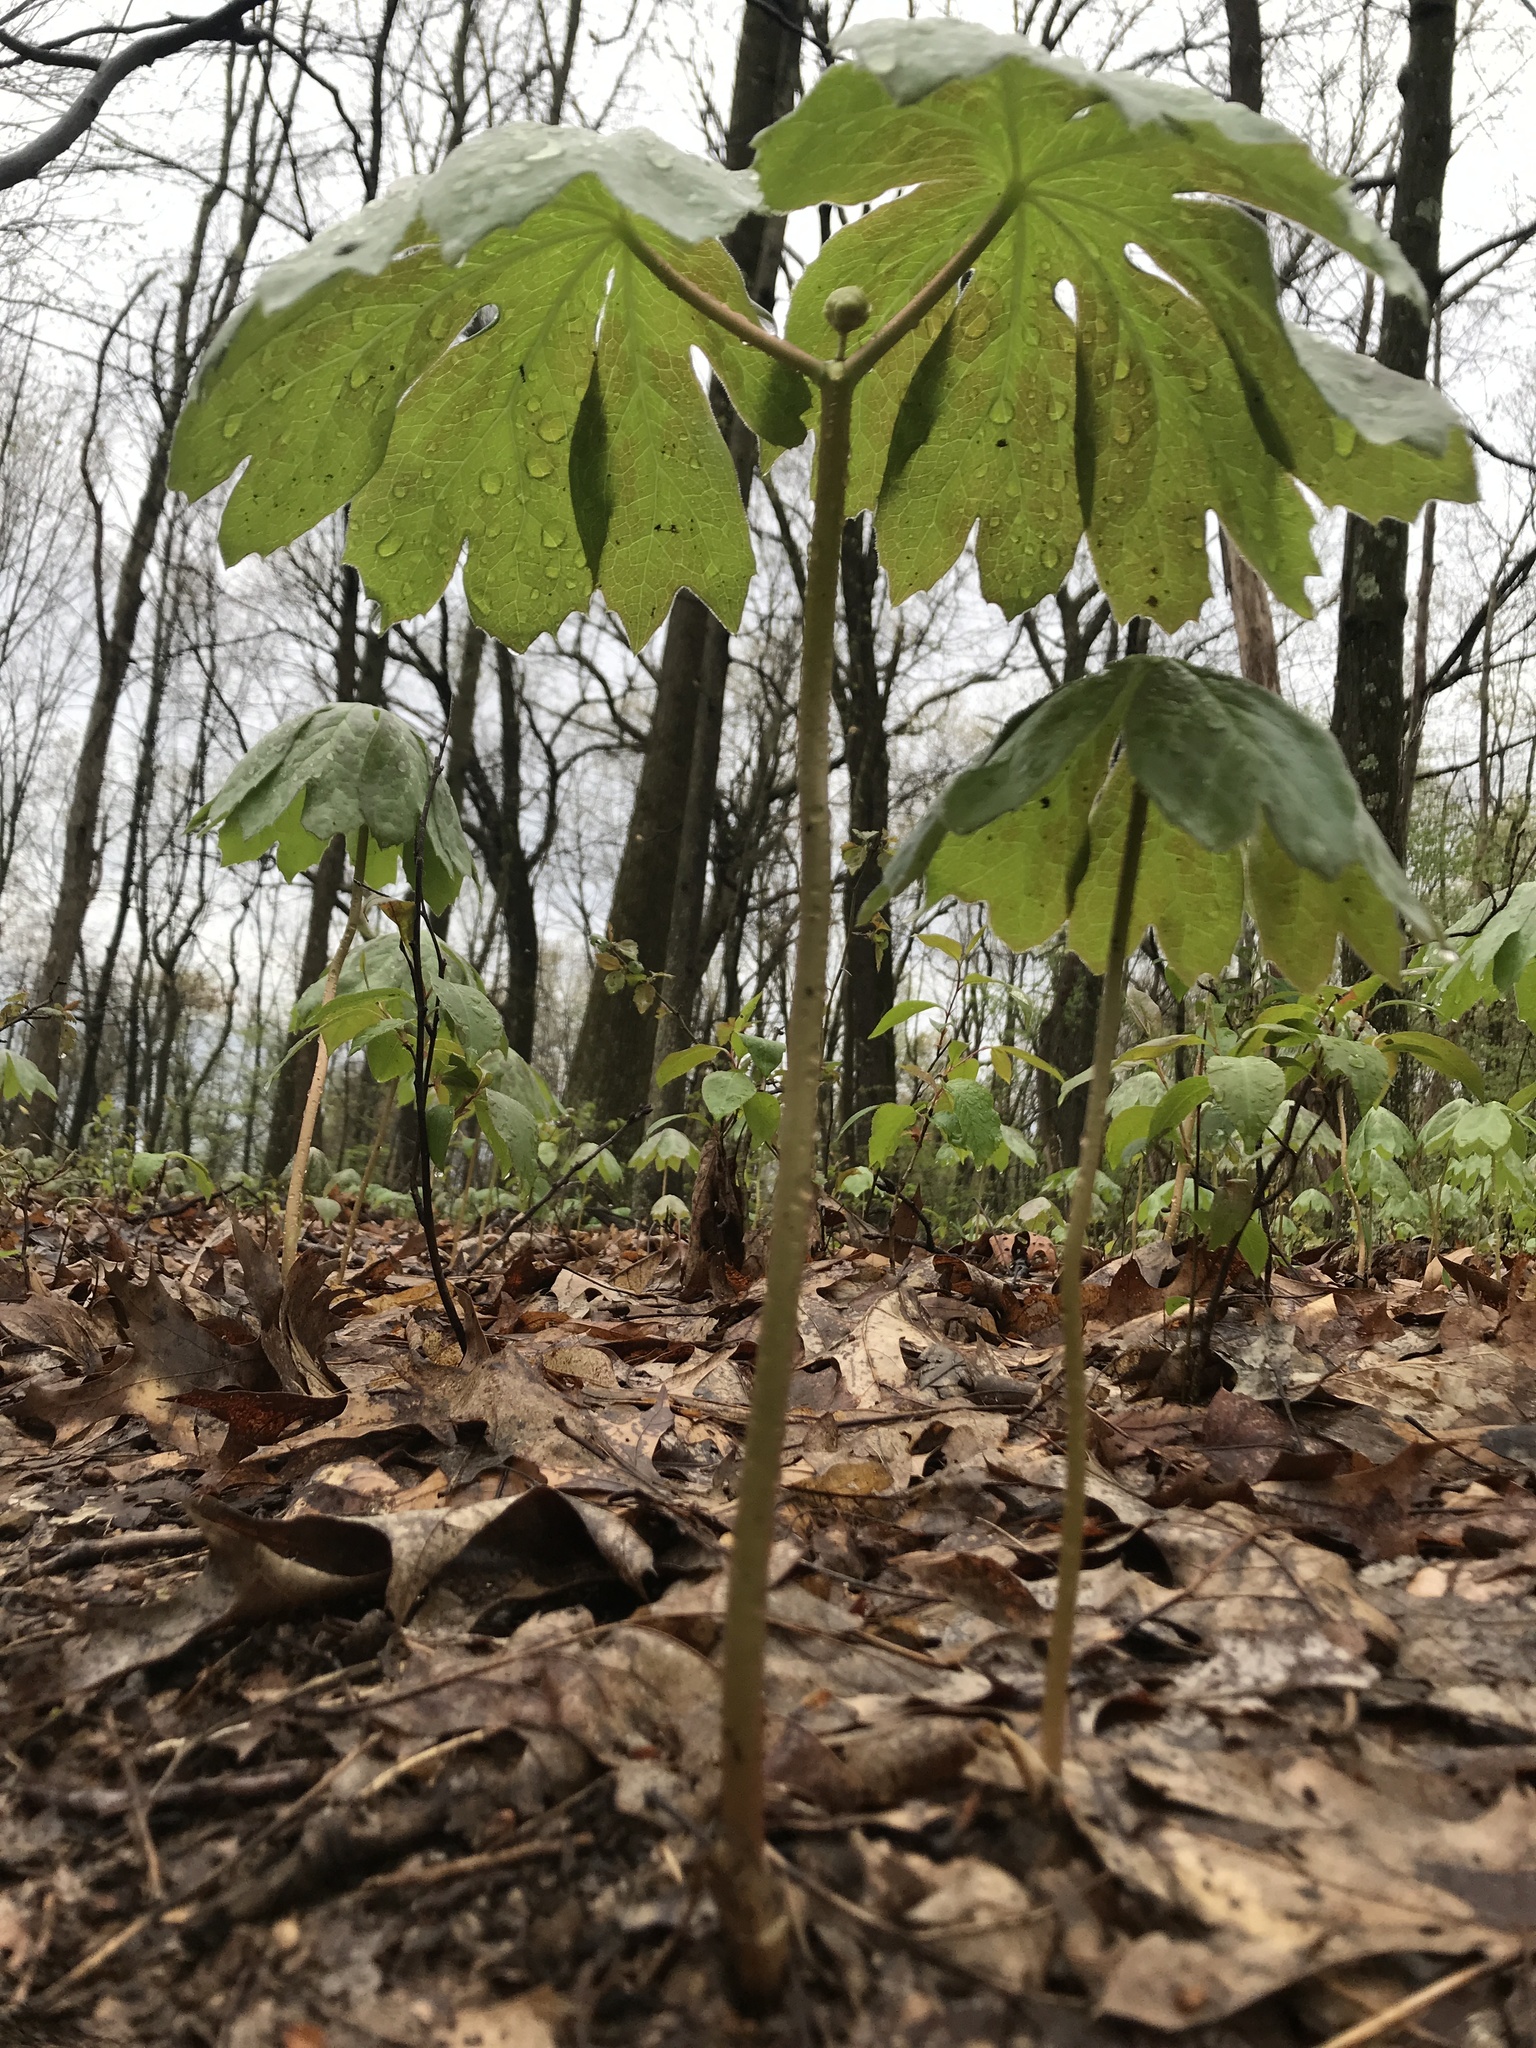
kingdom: Plantae
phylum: Tracheophyta
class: Magnoliopsida
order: Ranunculales
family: Berberidaceae
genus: Podophyllum
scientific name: Podophyllum peltatum
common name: Wild mandrake
